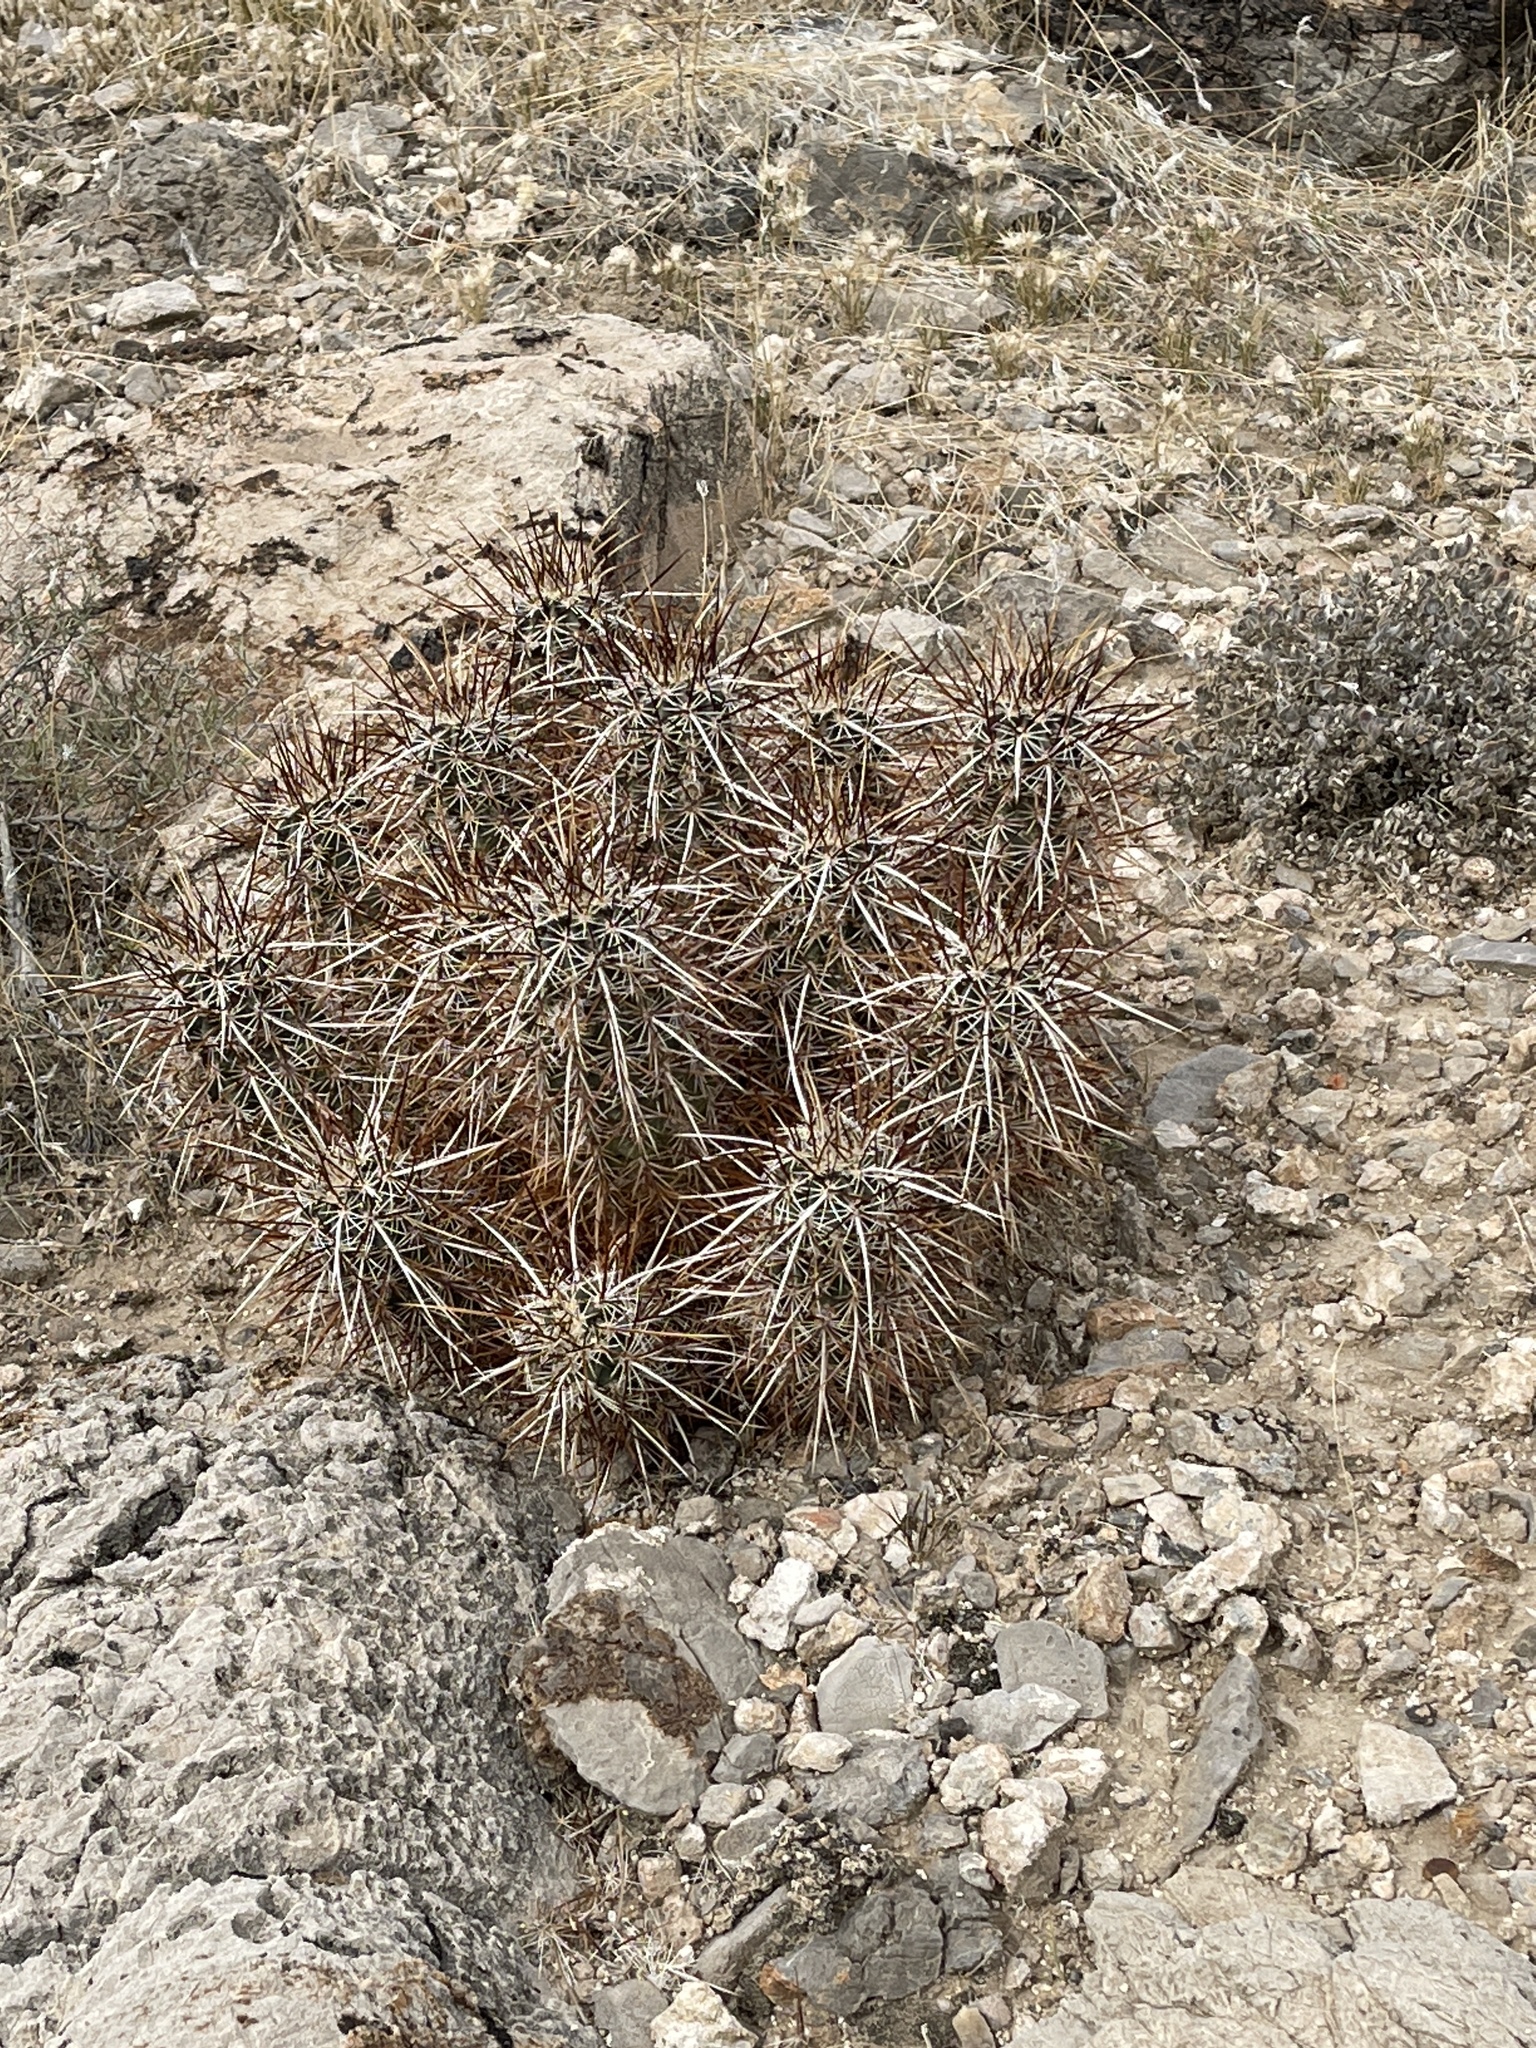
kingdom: Plantae
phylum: Tracheophyta
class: Magnoliopsida
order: Caryophyllales
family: Cactaceae
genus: Echinocereus
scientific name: Echinocereus engelmannii
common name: Engelmann's hedgehog cactus
